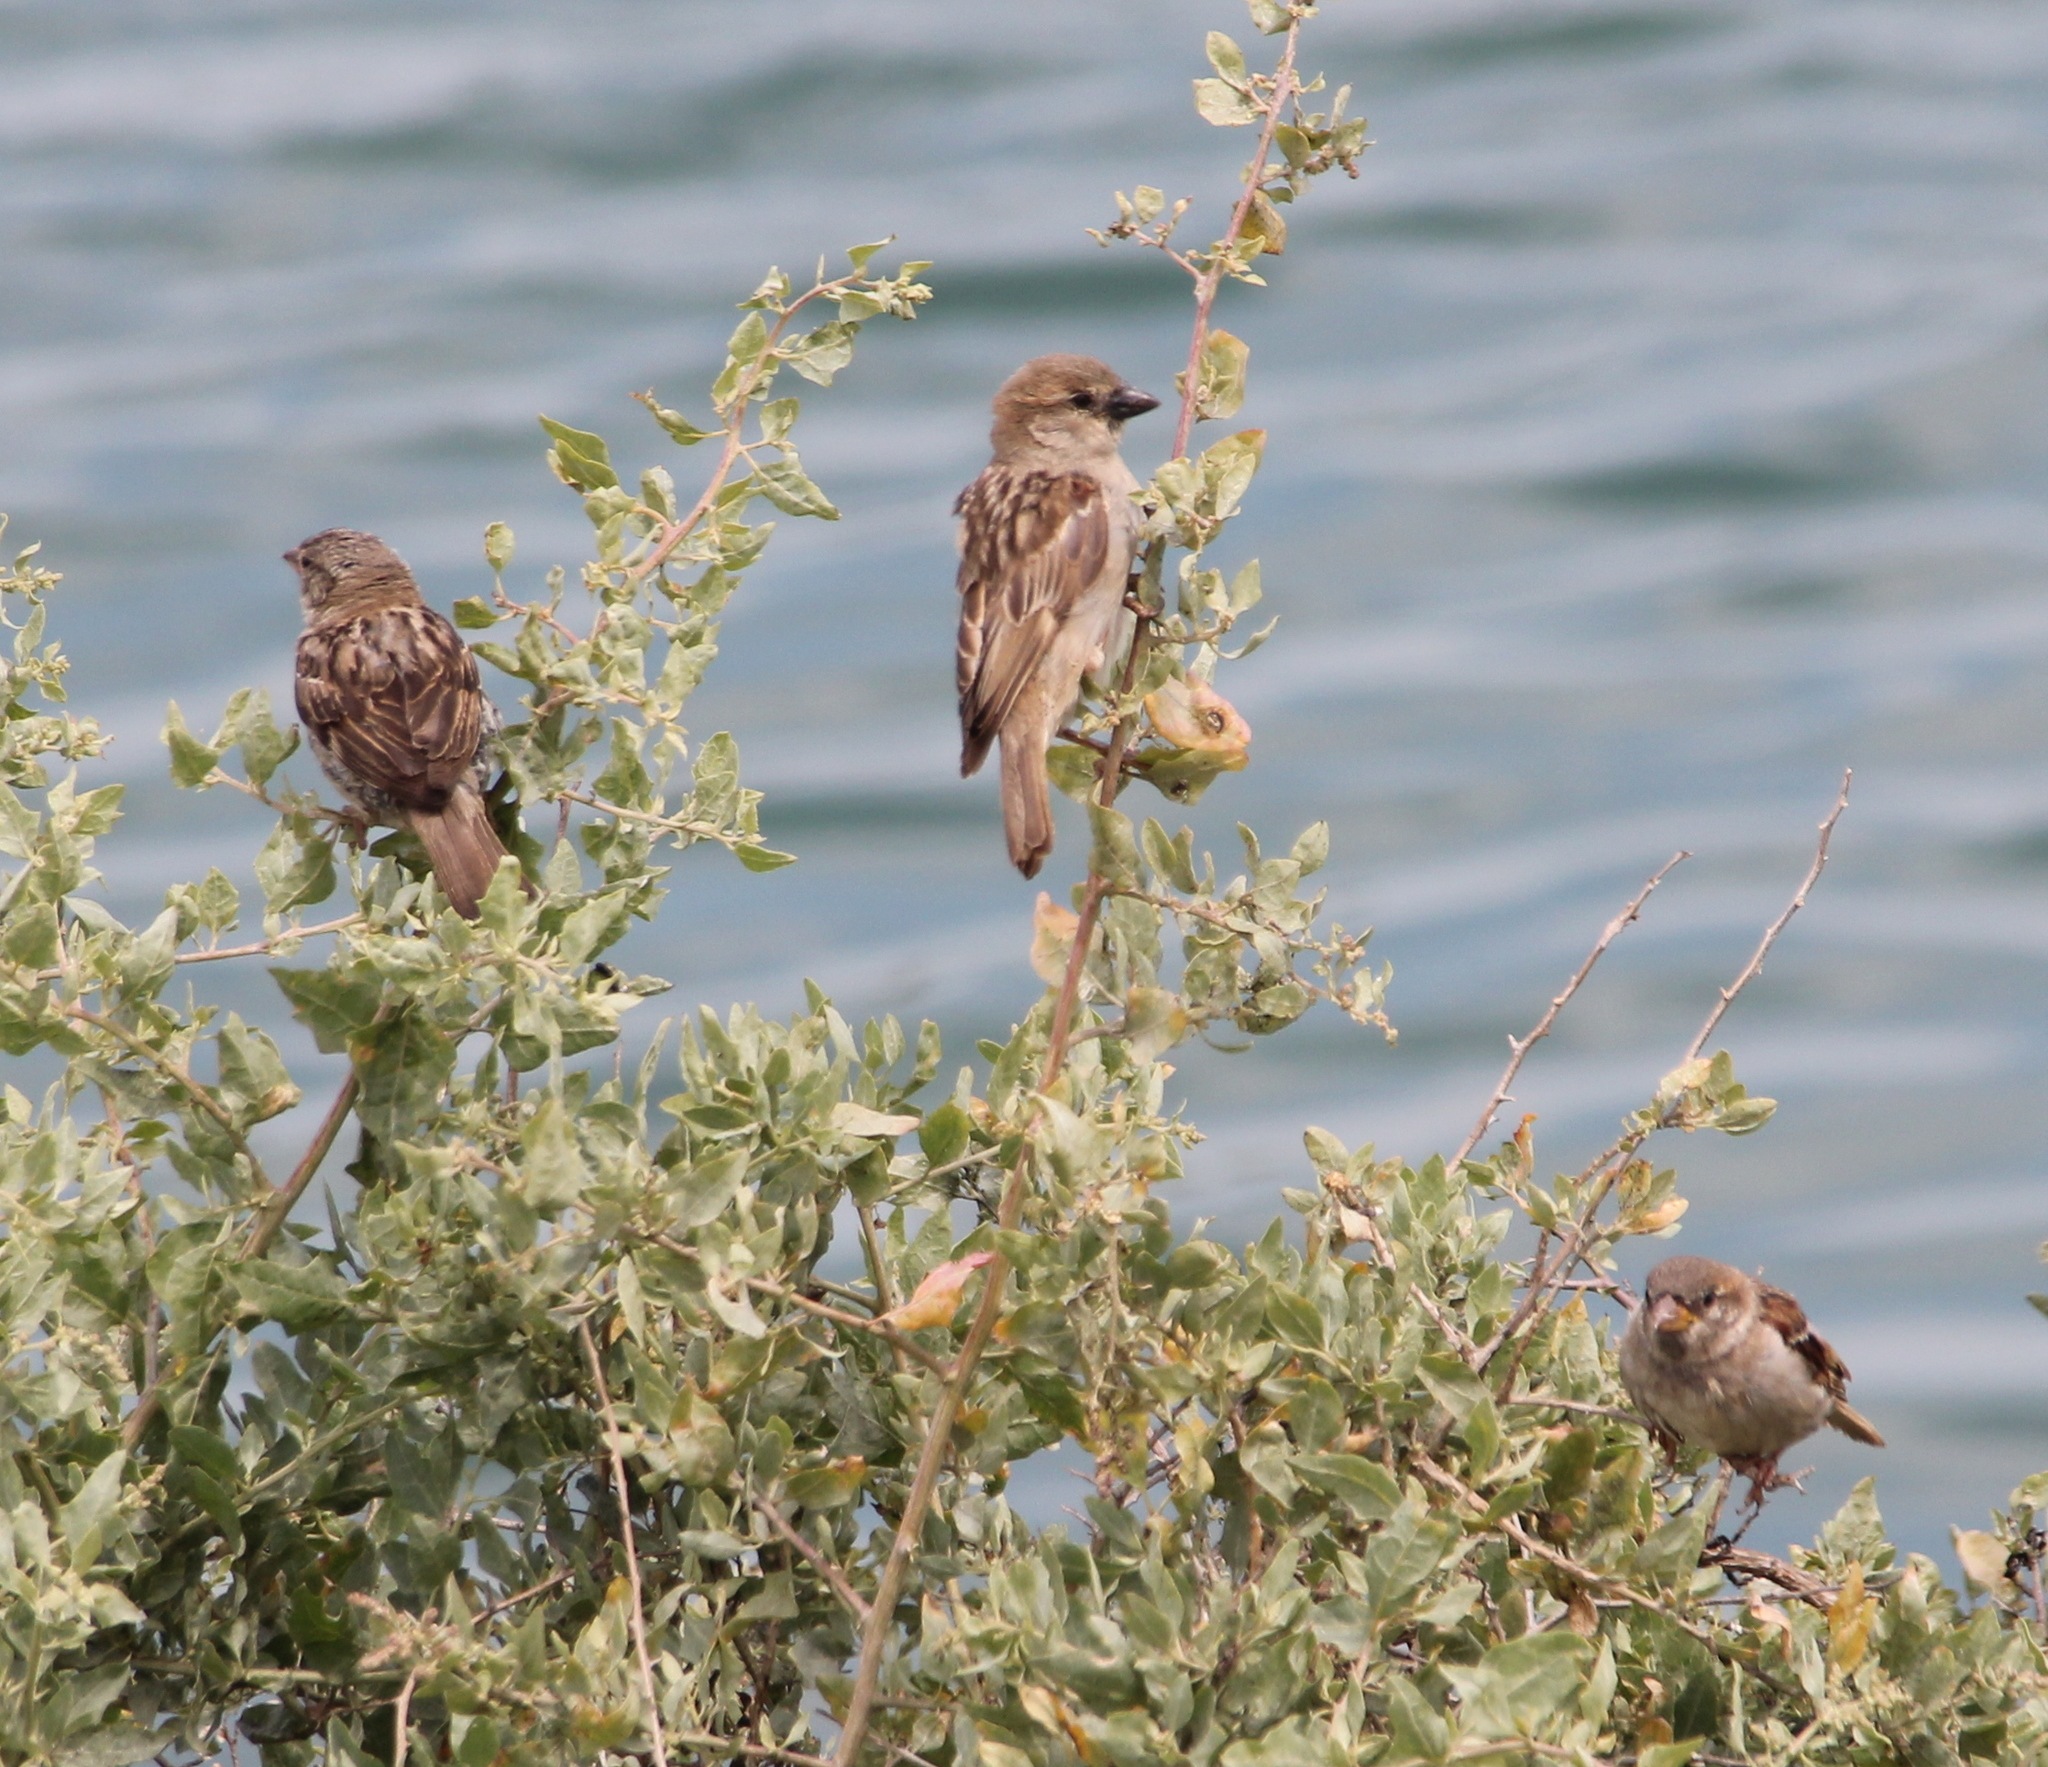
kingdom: Animalia
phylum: Chordata
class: Aves
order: Passeriformes
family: Passeridae
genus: Passer
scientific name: Passer domesticus
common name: House sparrow
